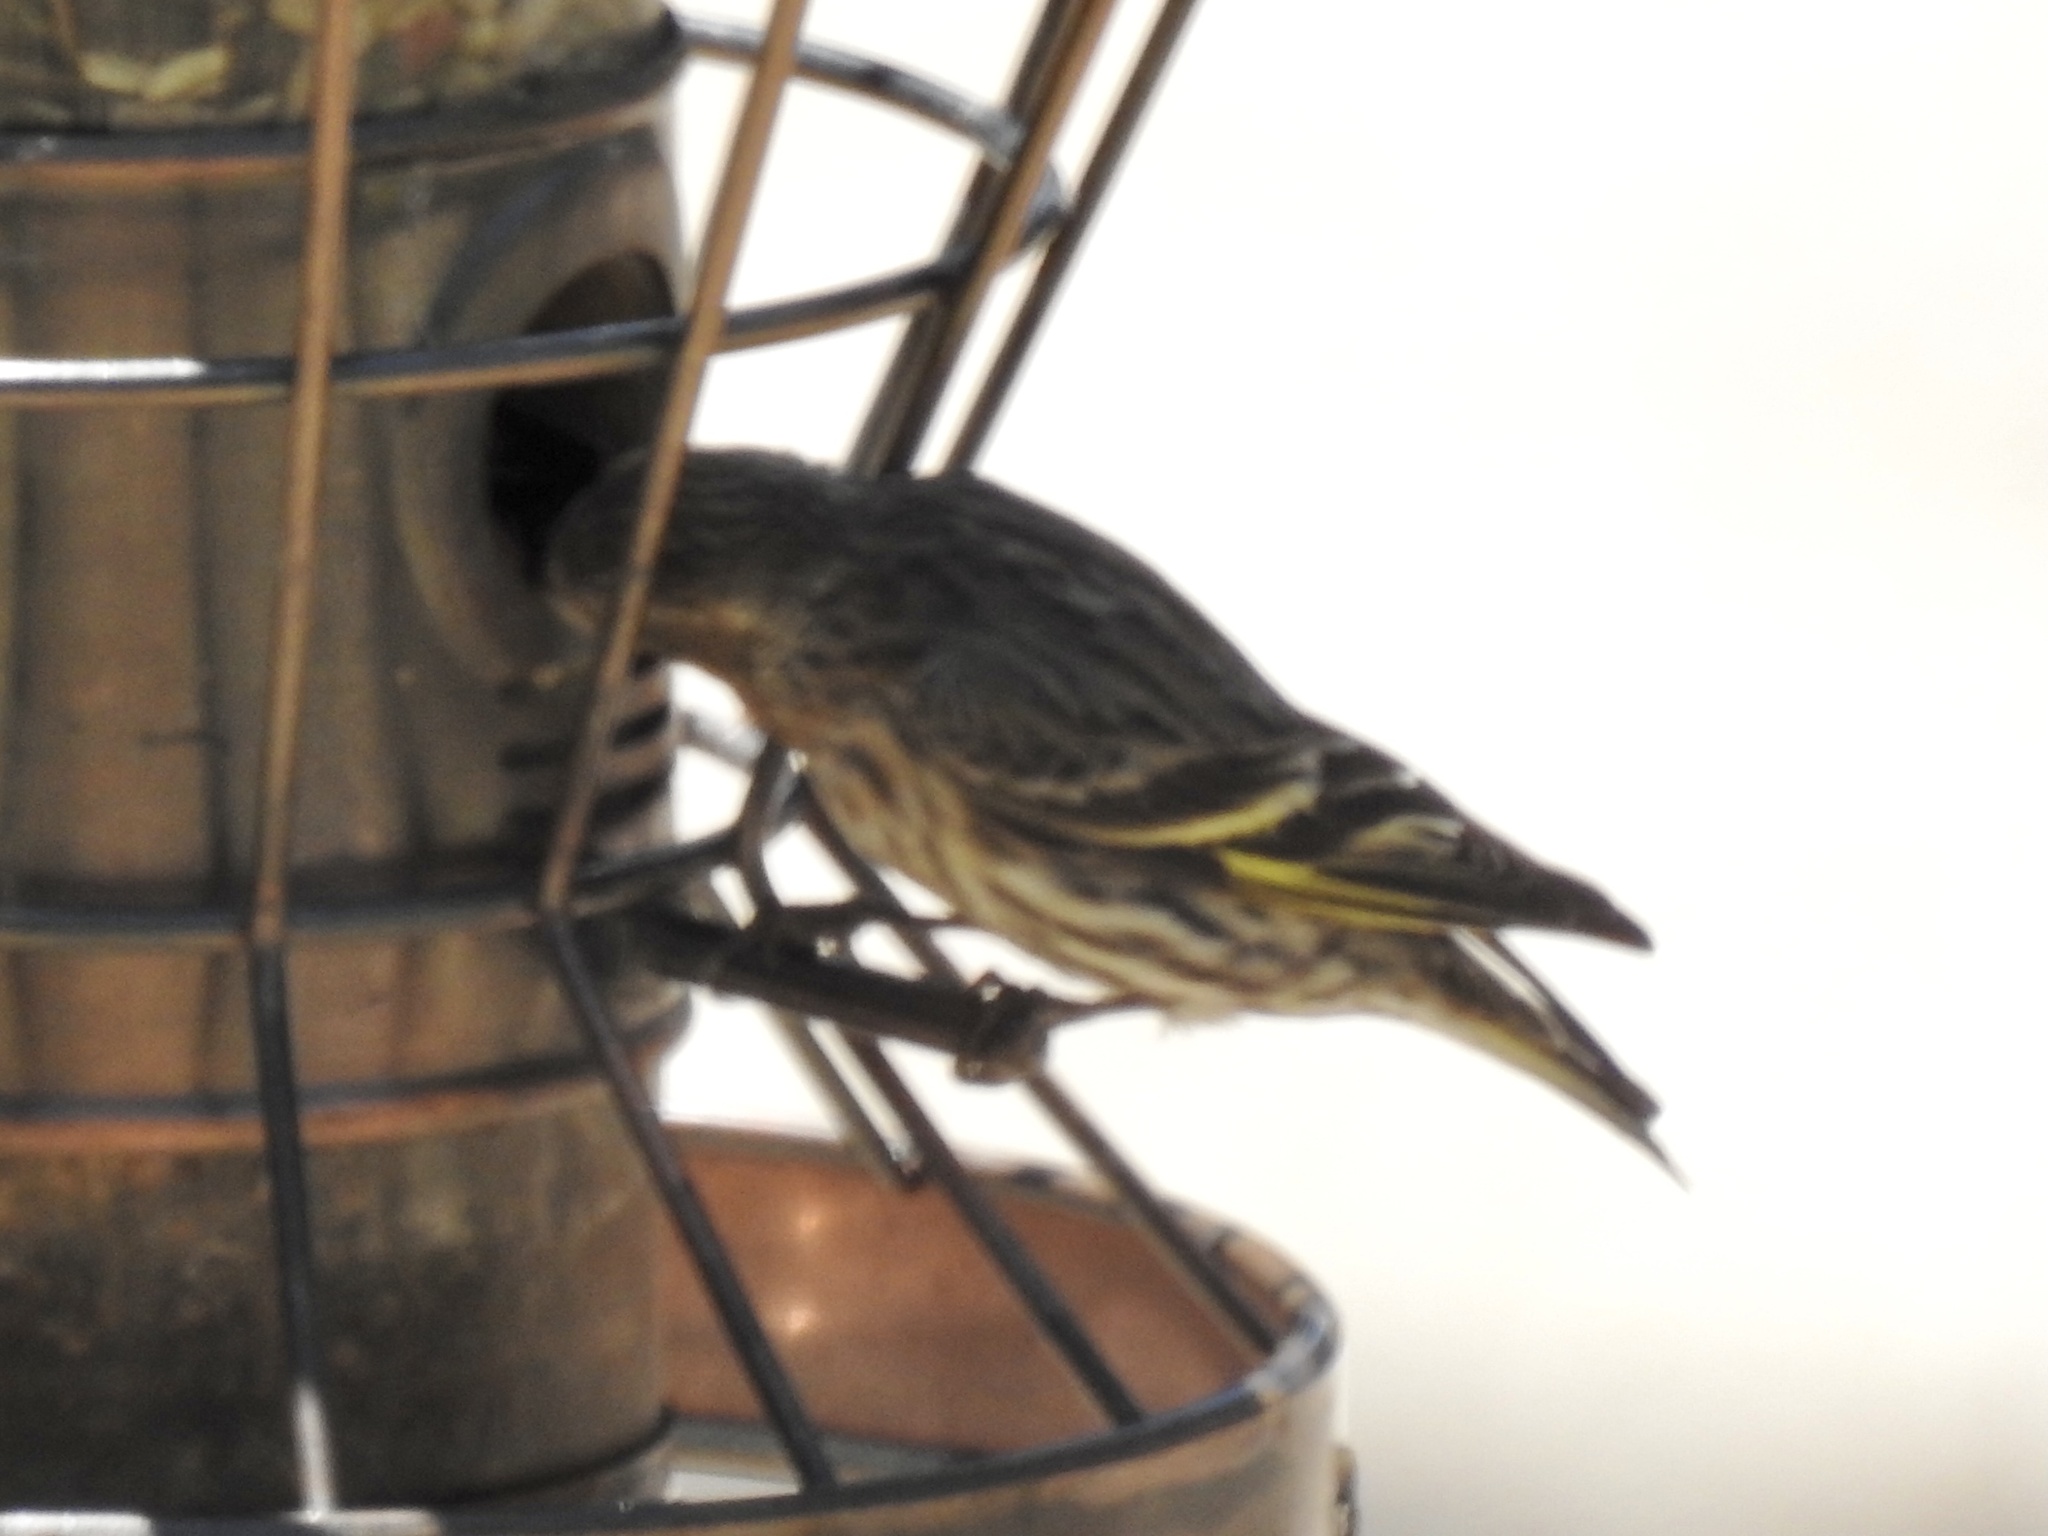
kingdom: Animalia
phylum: Chordata
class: Aves
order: Passeriformes
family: Fringillidae
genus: Spinus
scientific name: Spinus pinus
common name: Pine siskin
